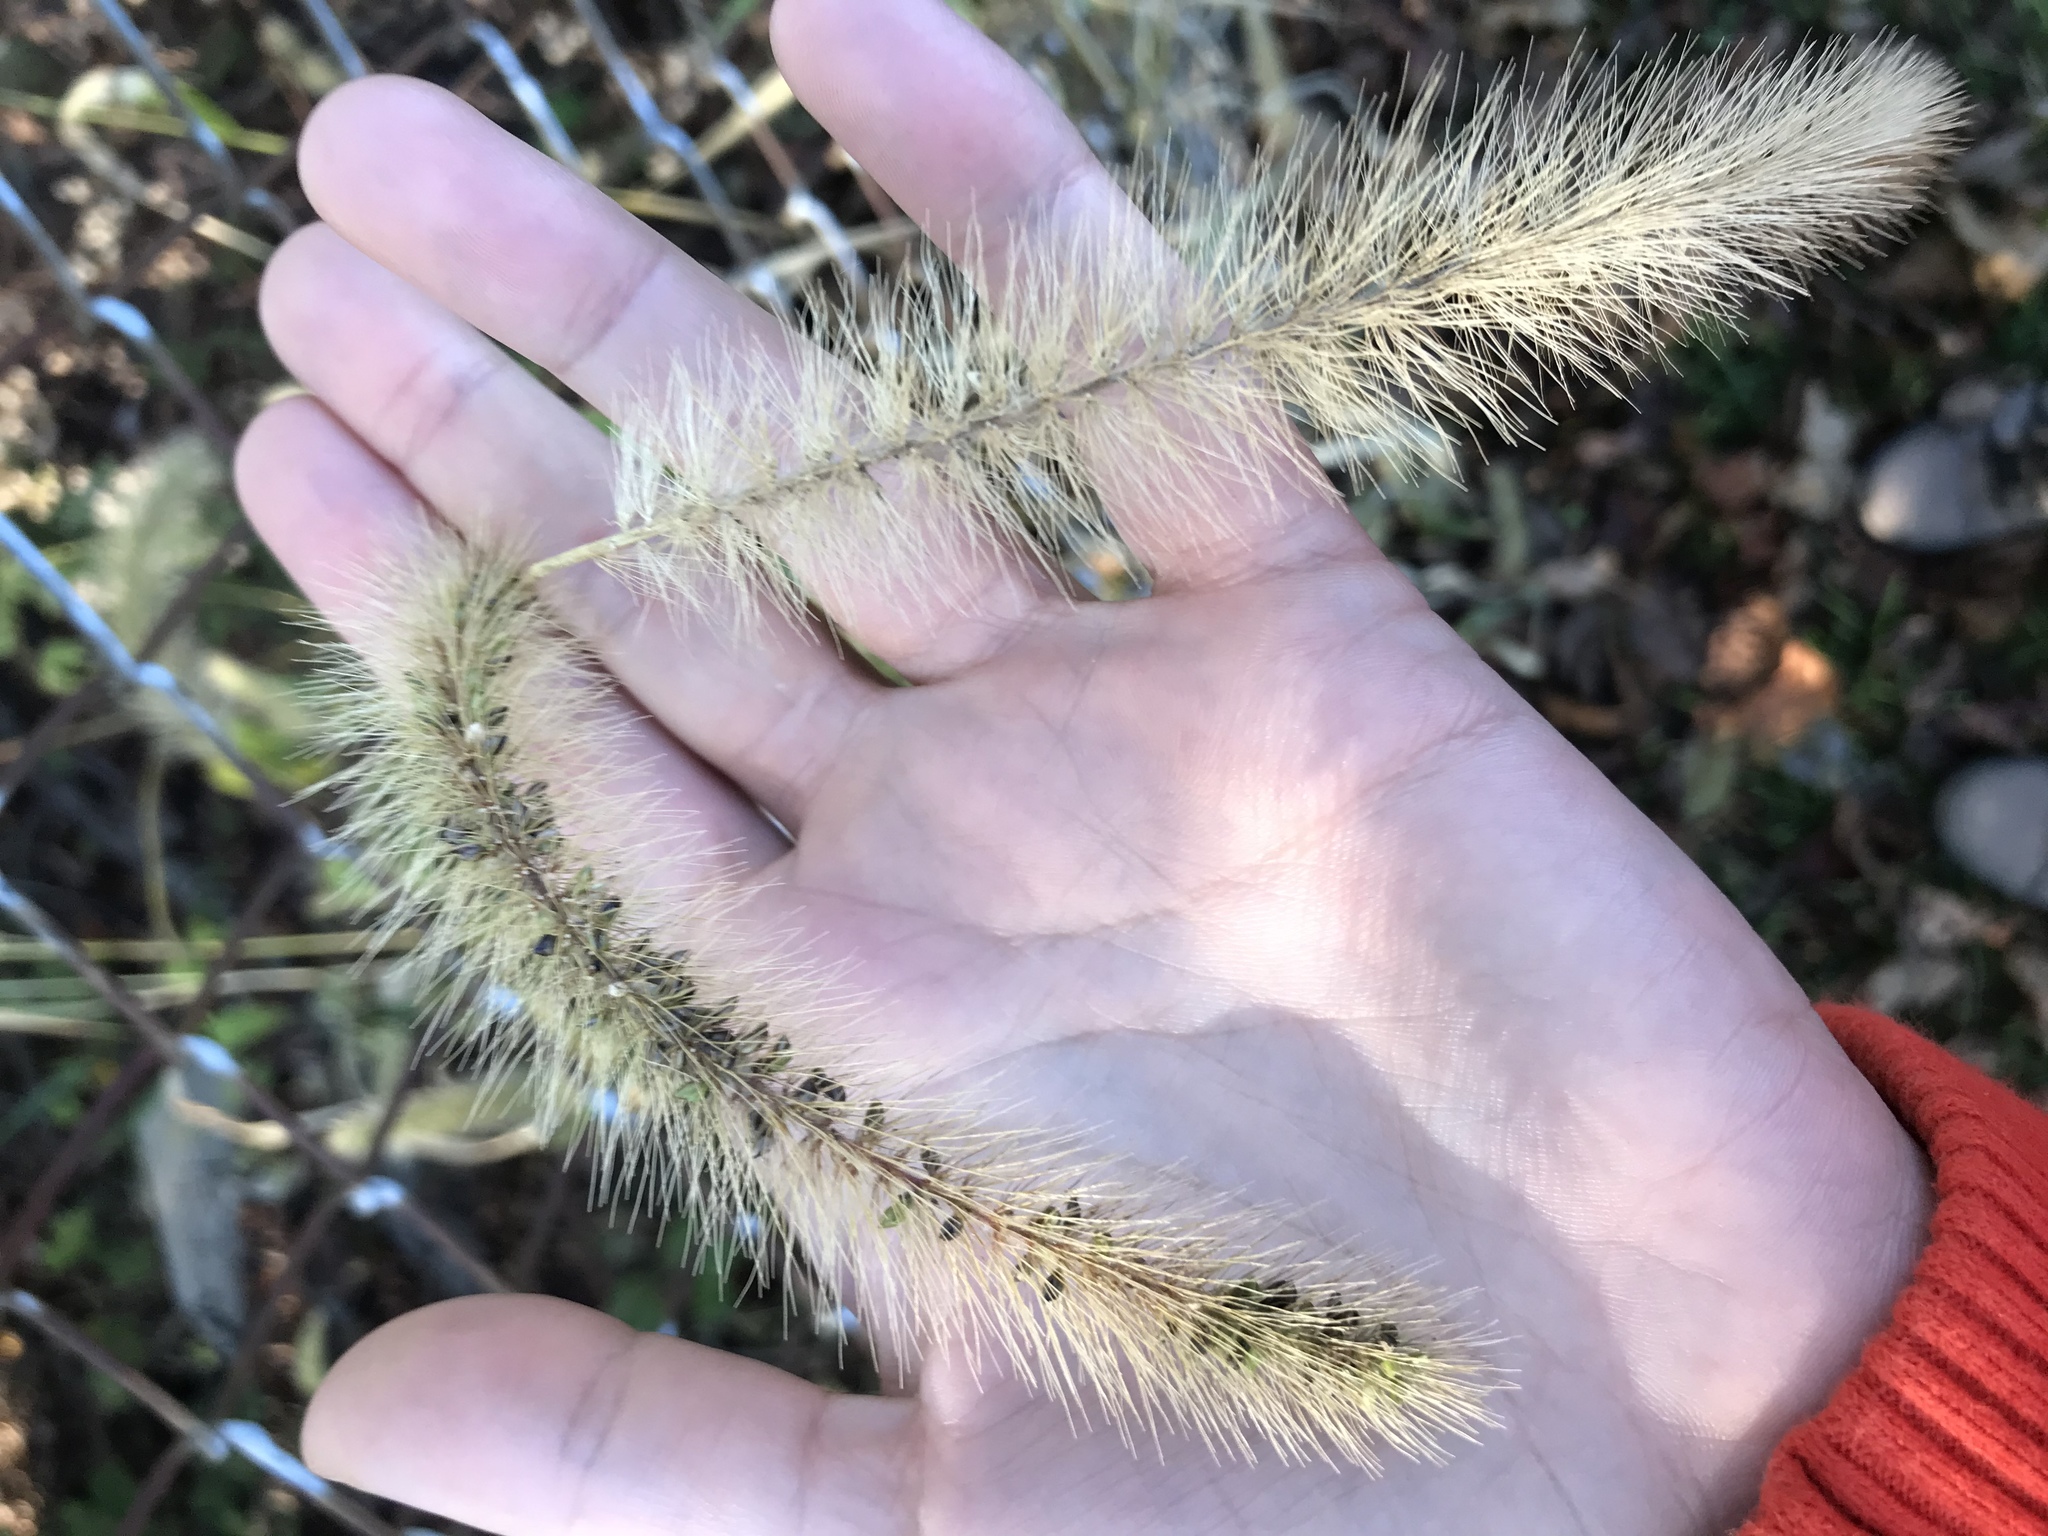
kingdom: Plantae
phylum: Tracheophyta
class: Liliopsida
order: Poales
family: Poaceae
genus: Setaria
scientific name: Setaria faberi
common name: Nodding bristle-grass
